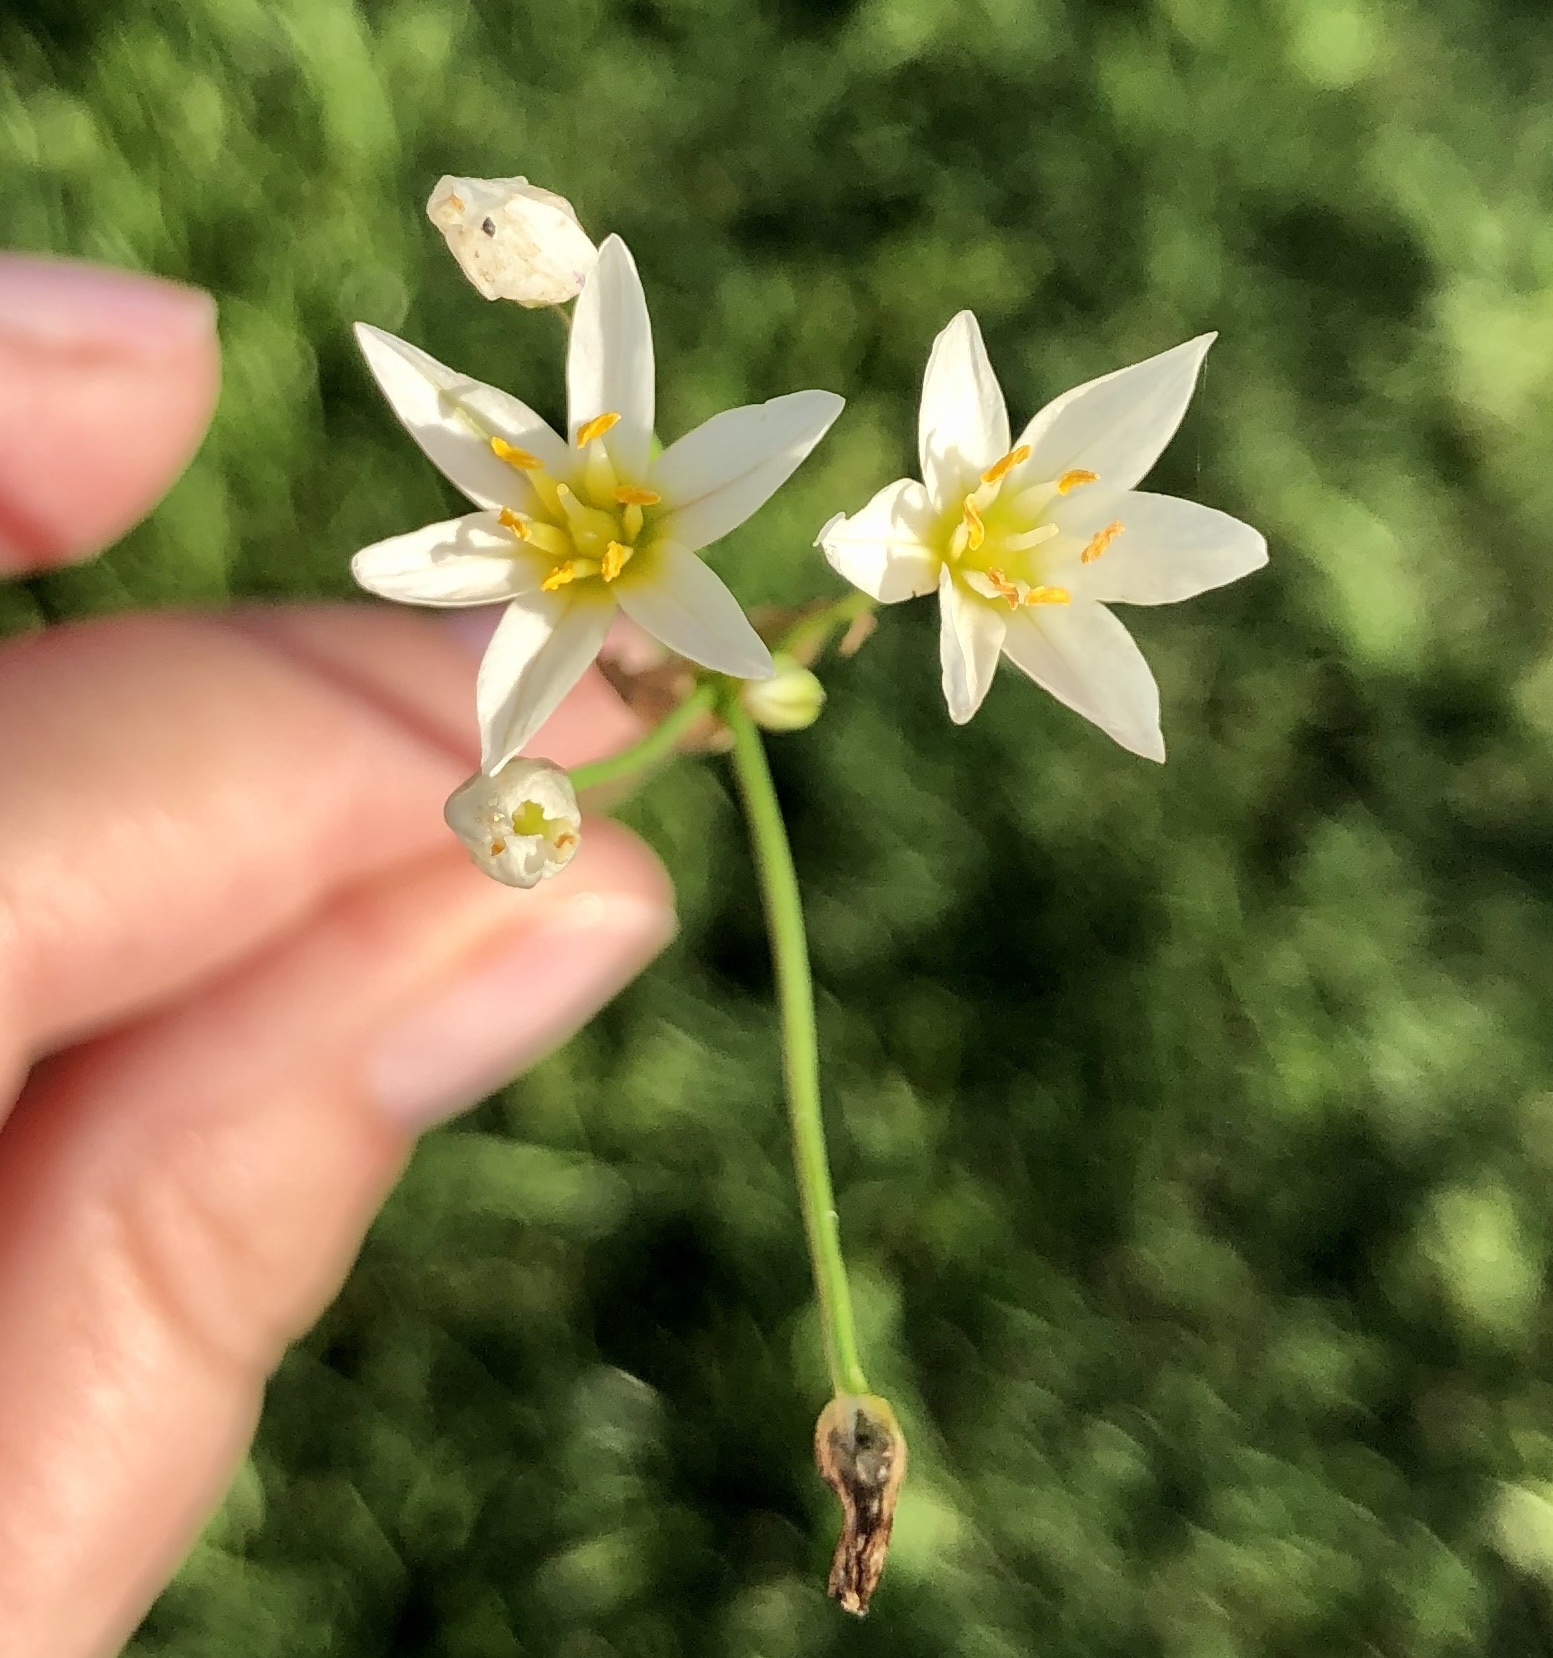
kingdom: Plantae
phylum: Tracheophyta
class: Liliopsida
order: Asparagales
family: Amaryllidaceae
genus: Nothoscordum
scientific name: Nothoscordum bivalve
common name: Crow-poison
